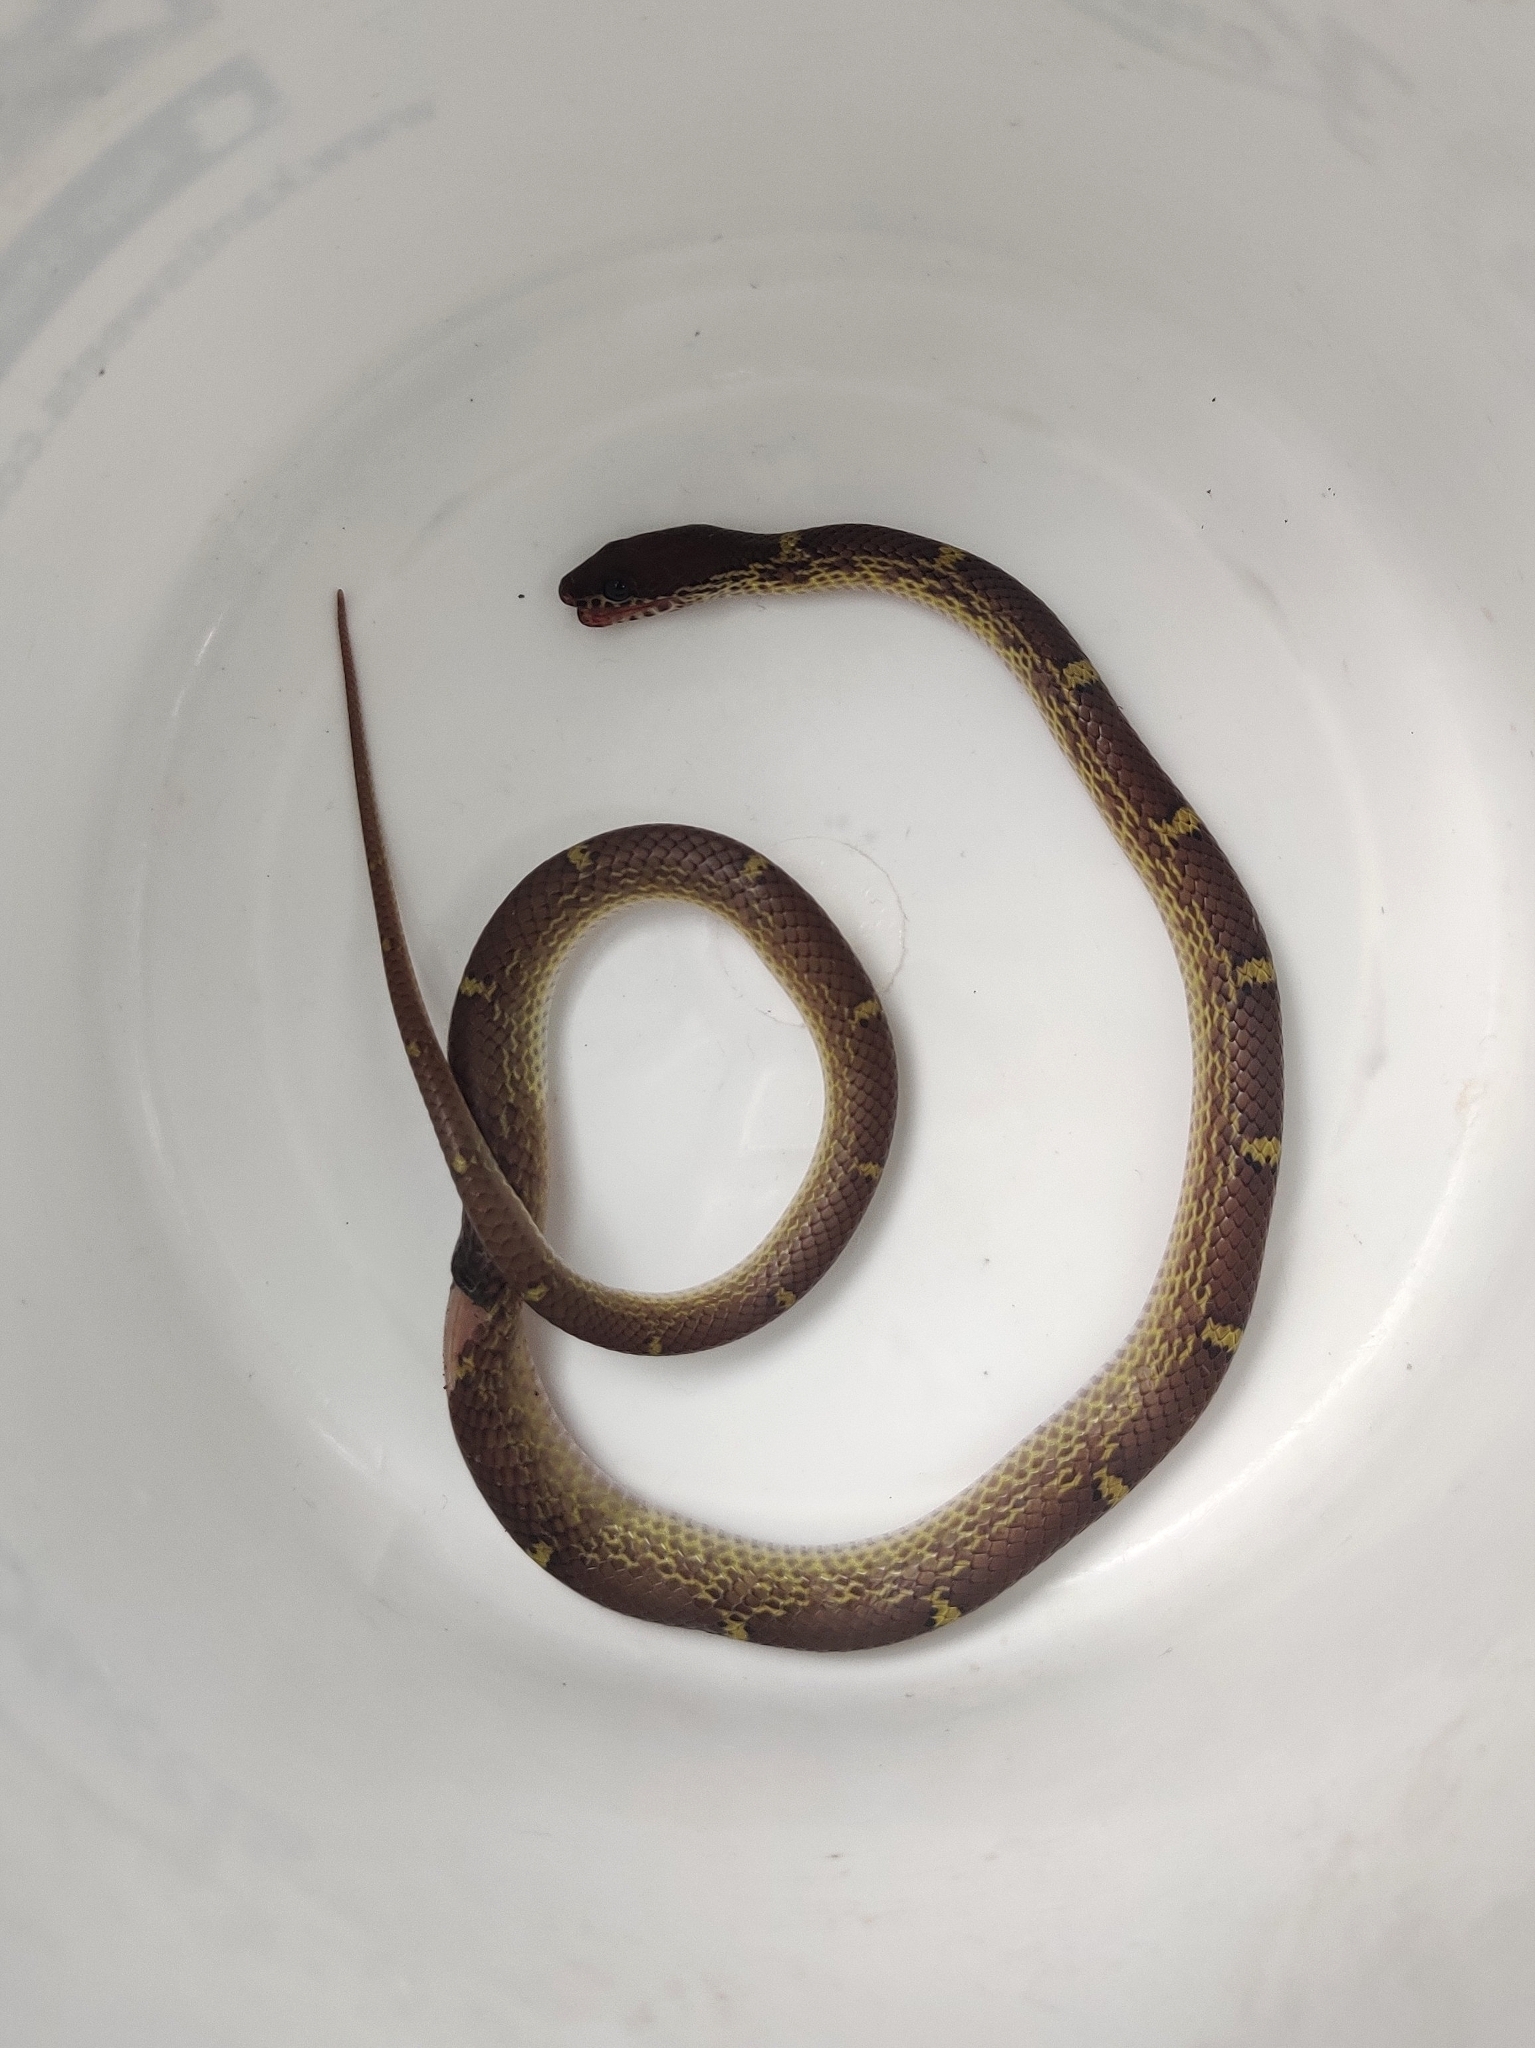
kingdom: Animalia
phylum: Chordata
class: Squamata
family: Colubridae
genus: Lycodon
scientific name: Lycodon fasciolatus
